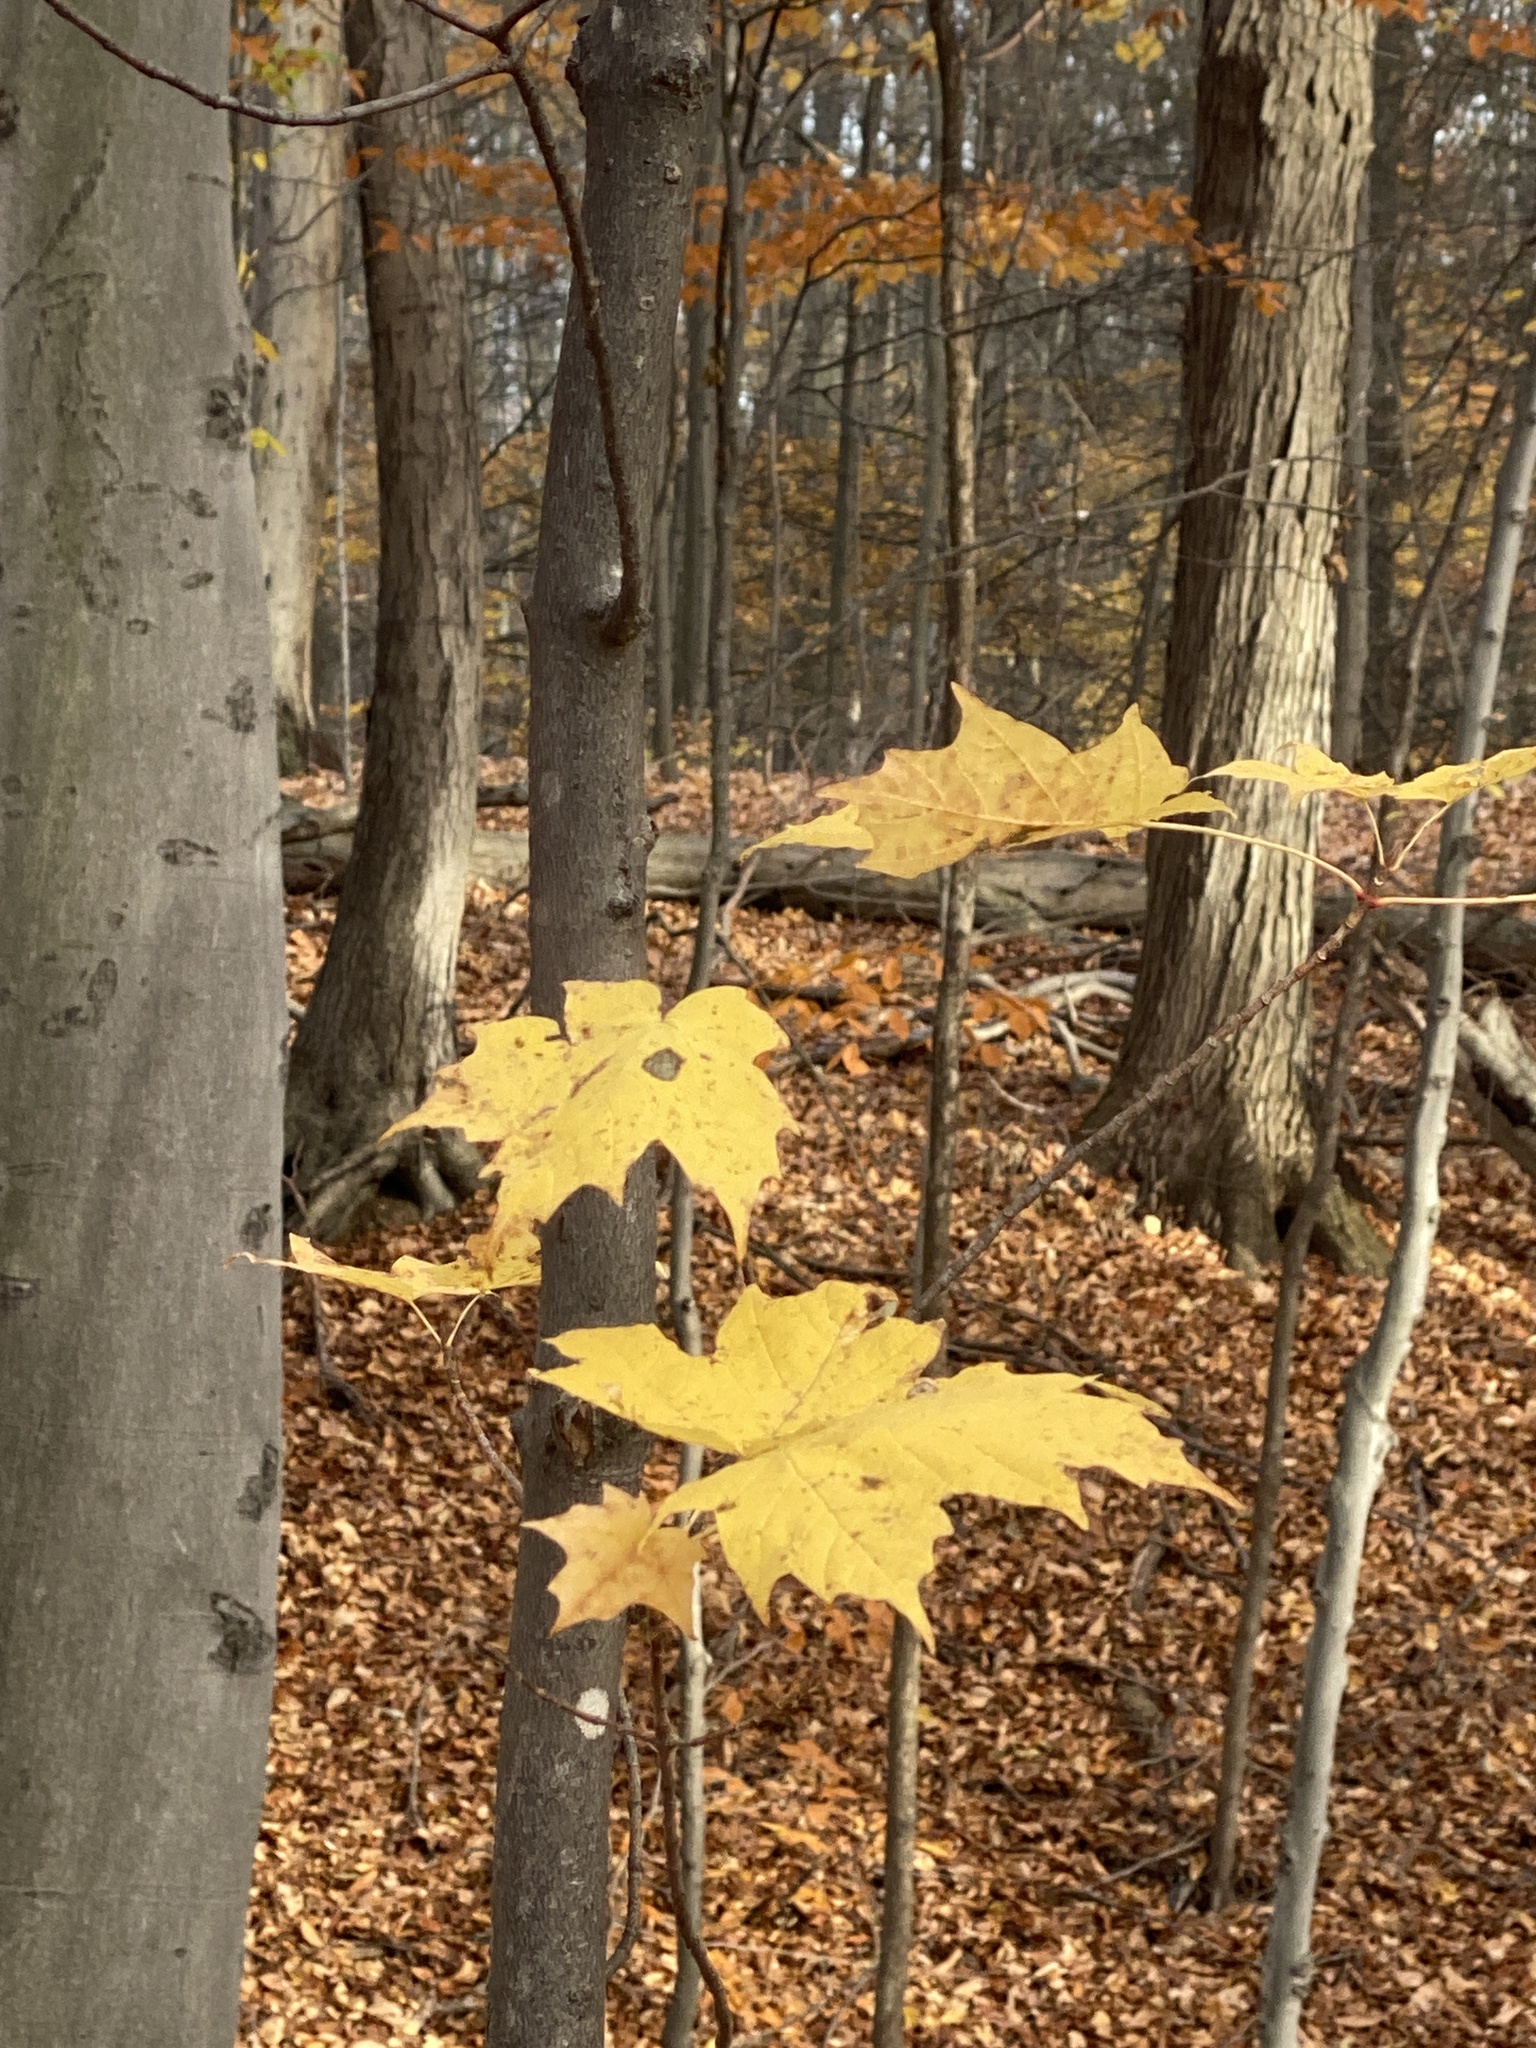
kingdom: Plantae
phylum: Tracheophyta
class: Magnoliopsida
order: Sapindales
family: Sapindaceae
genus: Acer
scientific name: Acer saccharum
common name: Sugar maple
